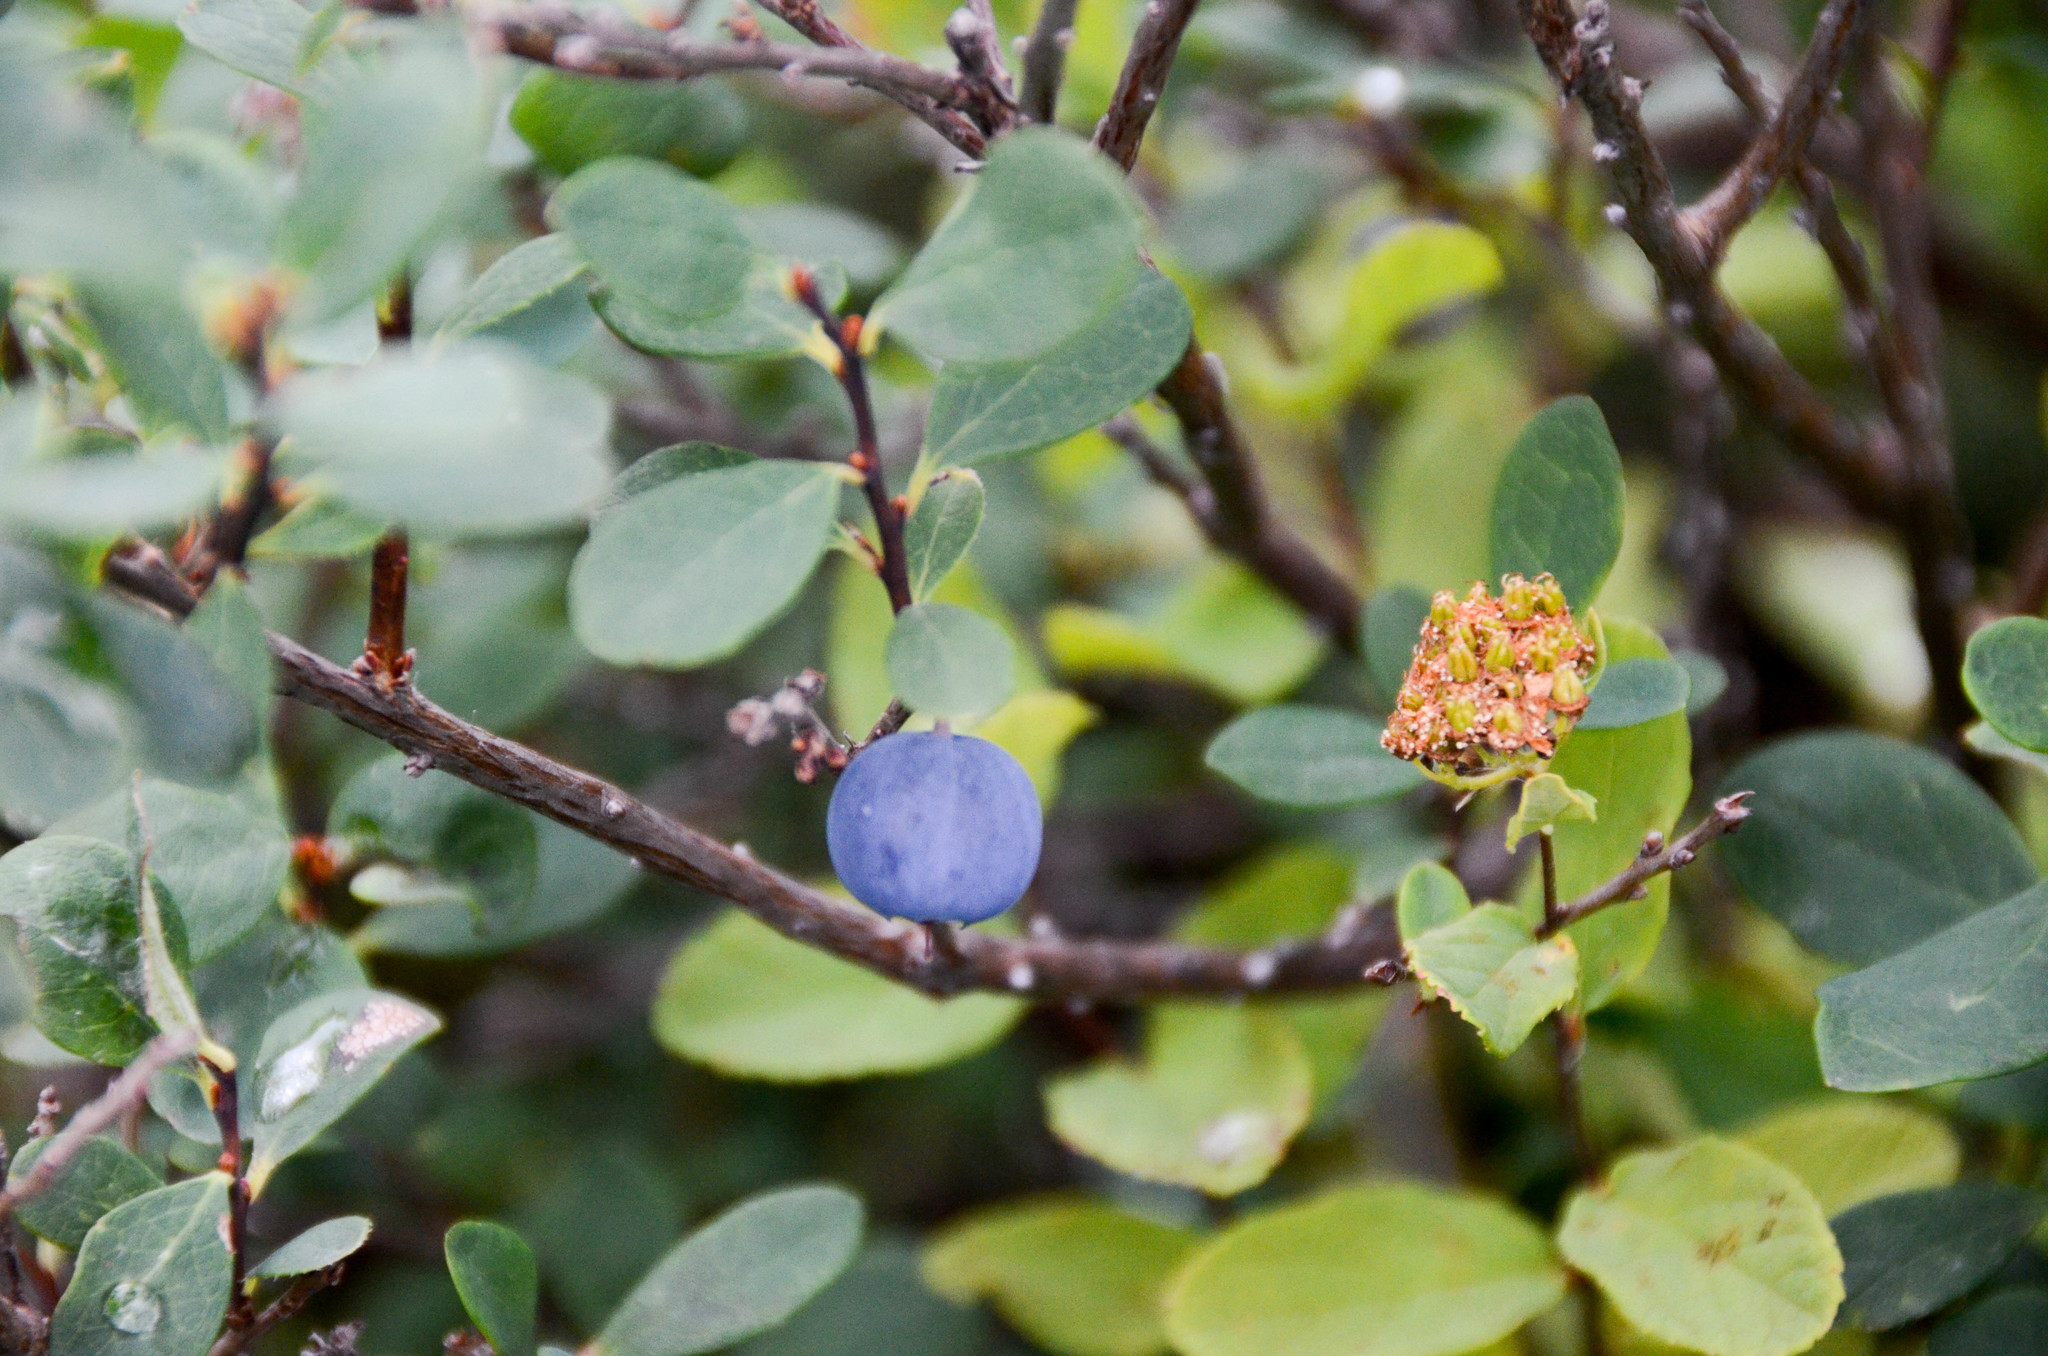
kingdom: Plantae
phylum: Tracheophyta
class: Magnoliopsida
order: Ericales
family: Ericaceae
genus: Vaccinium
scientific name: Vaccinium uliginosum
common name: Bog bilberry
